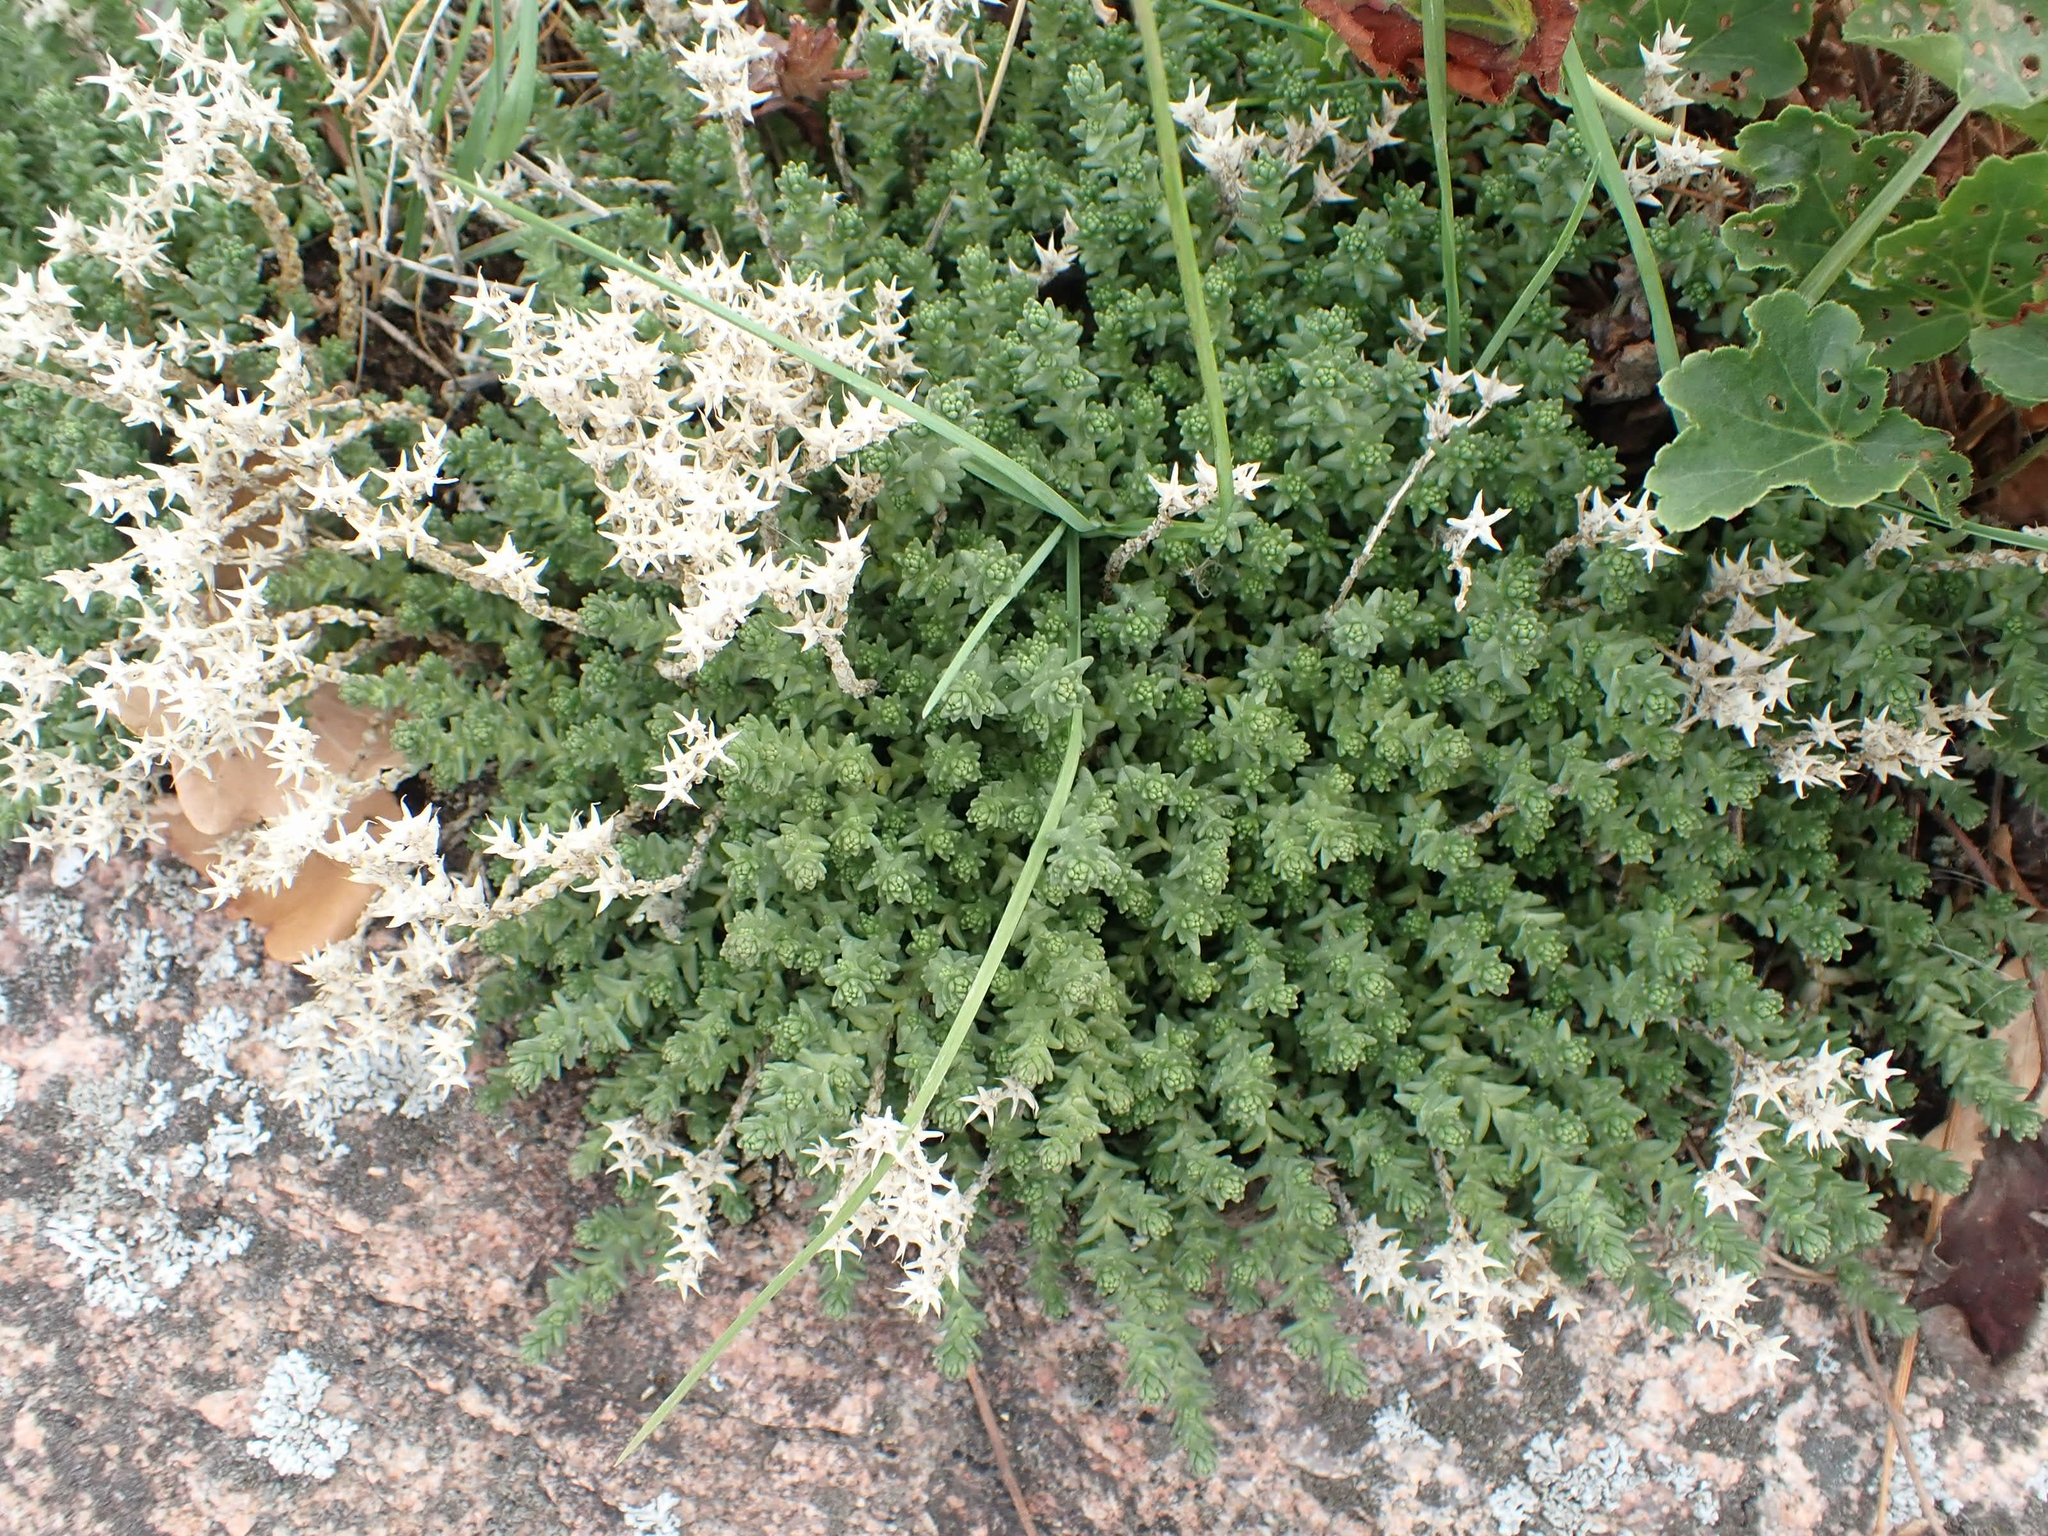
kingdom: Plantae
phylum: Tracheophyta
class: Magnoliopsida
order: Saxifragales
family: Crassulaceae
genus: Sedum
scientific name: Sedum acre
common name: Biting stonecrop
